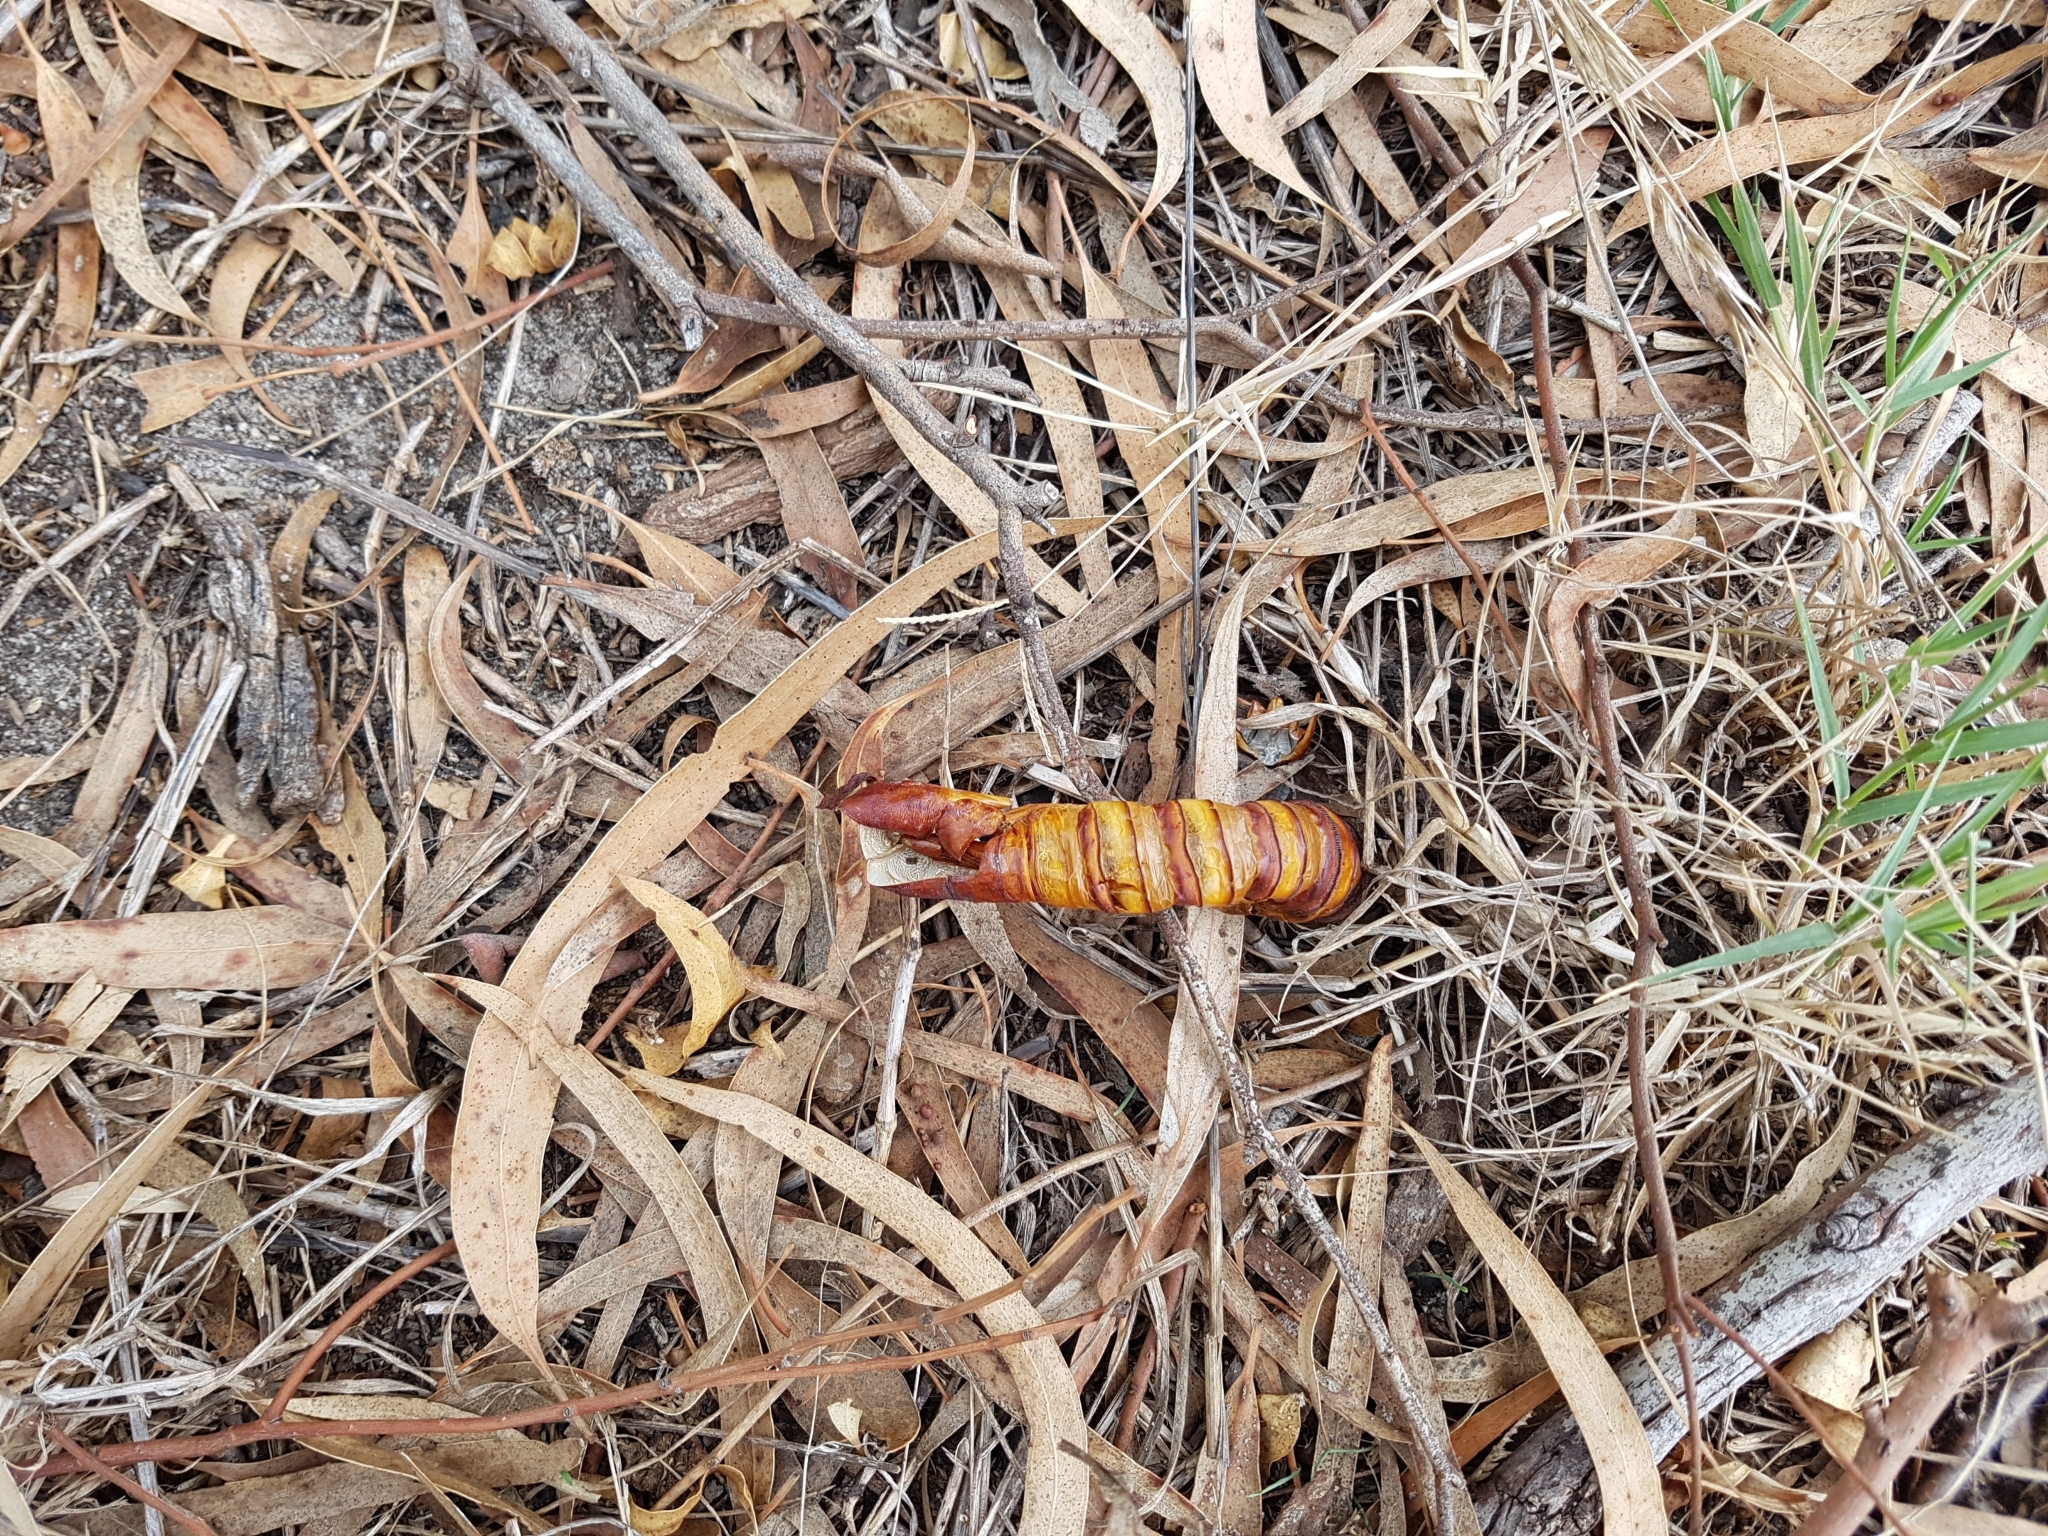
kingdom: Animalia
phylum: Arthropoda
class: Insecta
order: Lepidoptera
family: Hepialidae
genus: Abantiades
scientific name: Abantiades atripalpis
